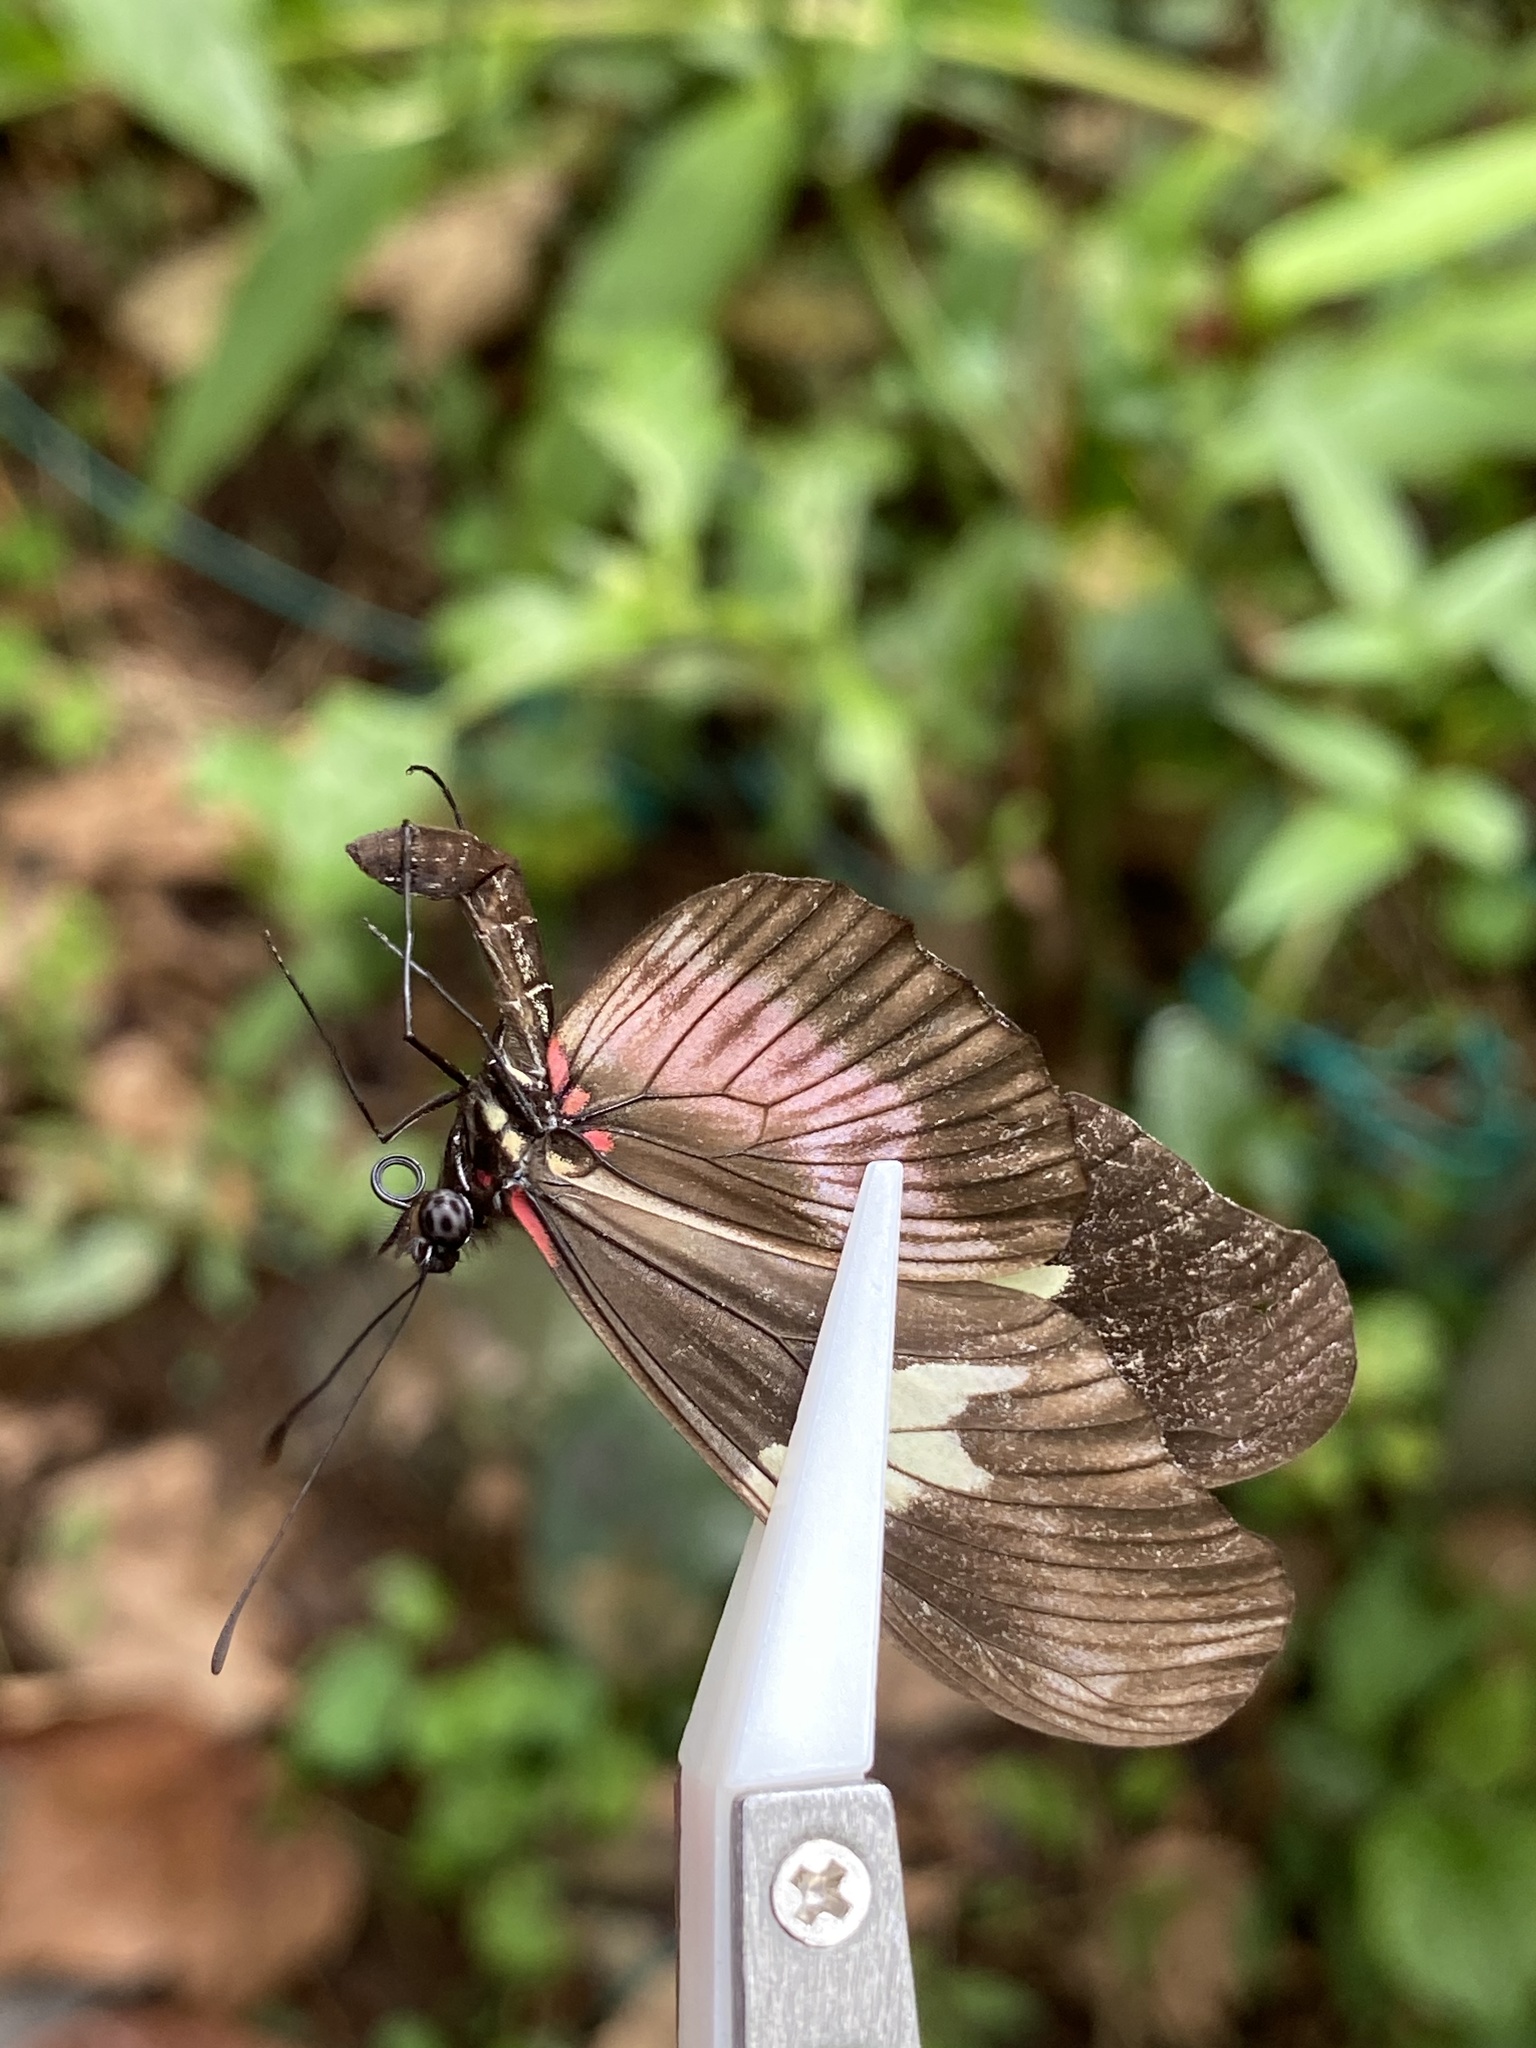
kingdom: Animalia
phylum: Arthropoda
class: Insecta
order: Lepidoptera
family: Nymphalidae
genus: Heliconius
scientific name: Heliconius hortense
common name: Mexican longwing
